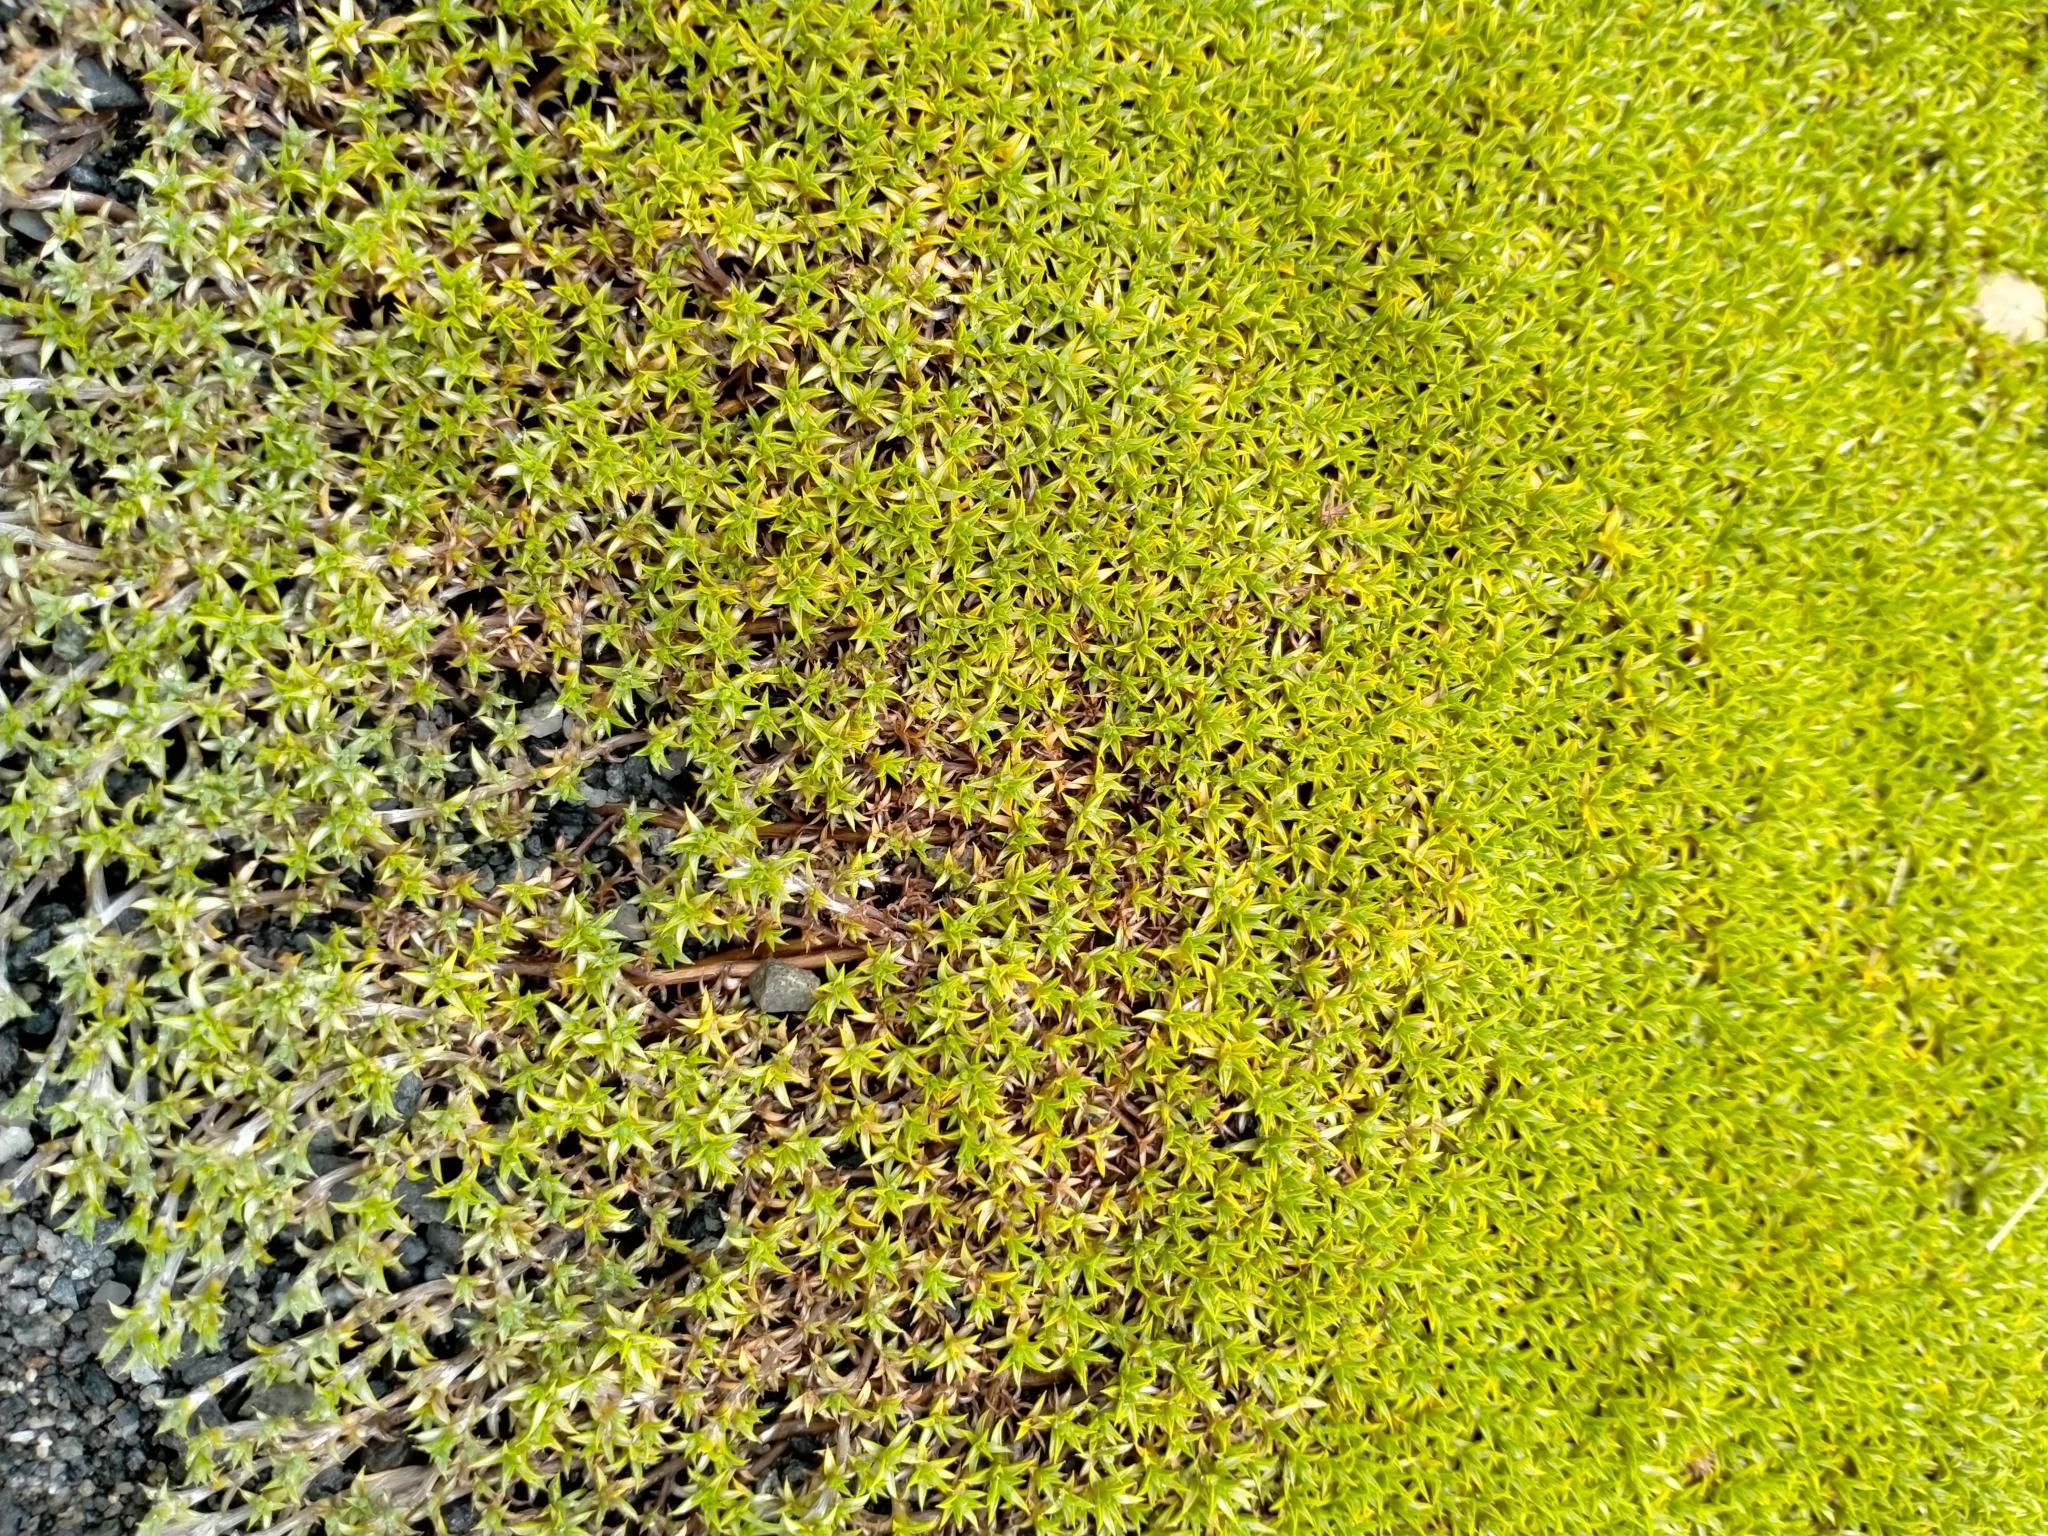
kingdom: Plantae
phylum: Tracheophyta
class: Magnoliopsida
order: Asterales
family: Asteraceae
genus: Raoulia
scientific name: Raoulia tenuicaulis
